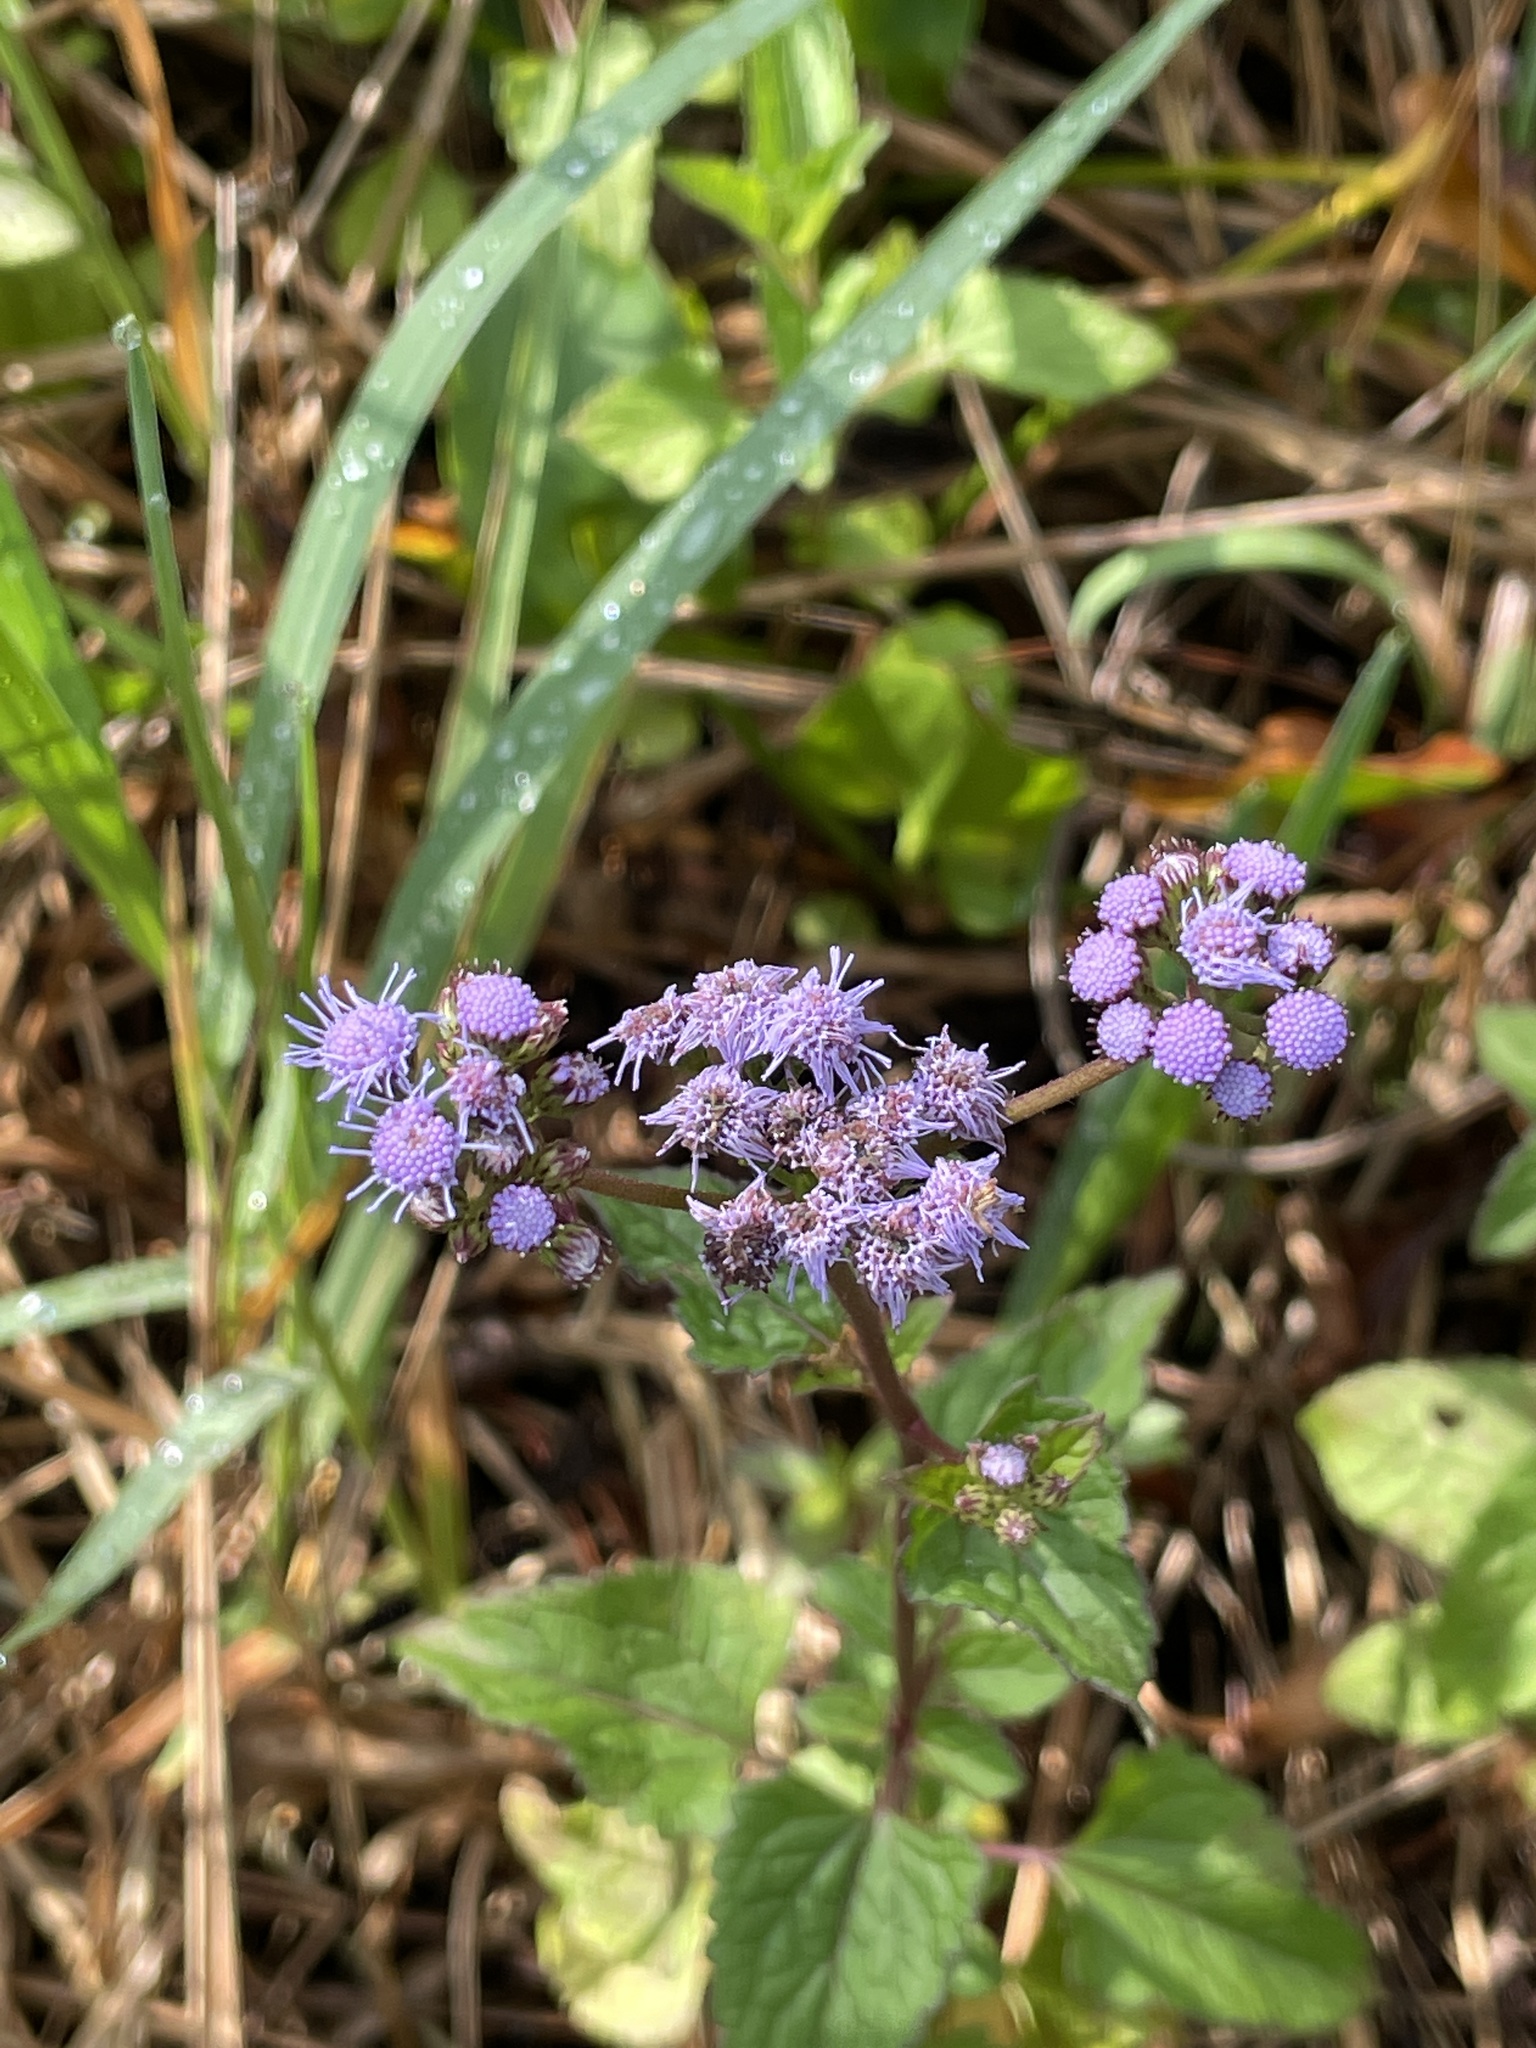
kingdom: Plantae
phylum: Tracheophyta
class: Magnoliopsida
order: Asterales
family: Asteraceae
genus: Conoclinium
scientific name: Conoclinium coelestinum
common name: Blue mistflower
